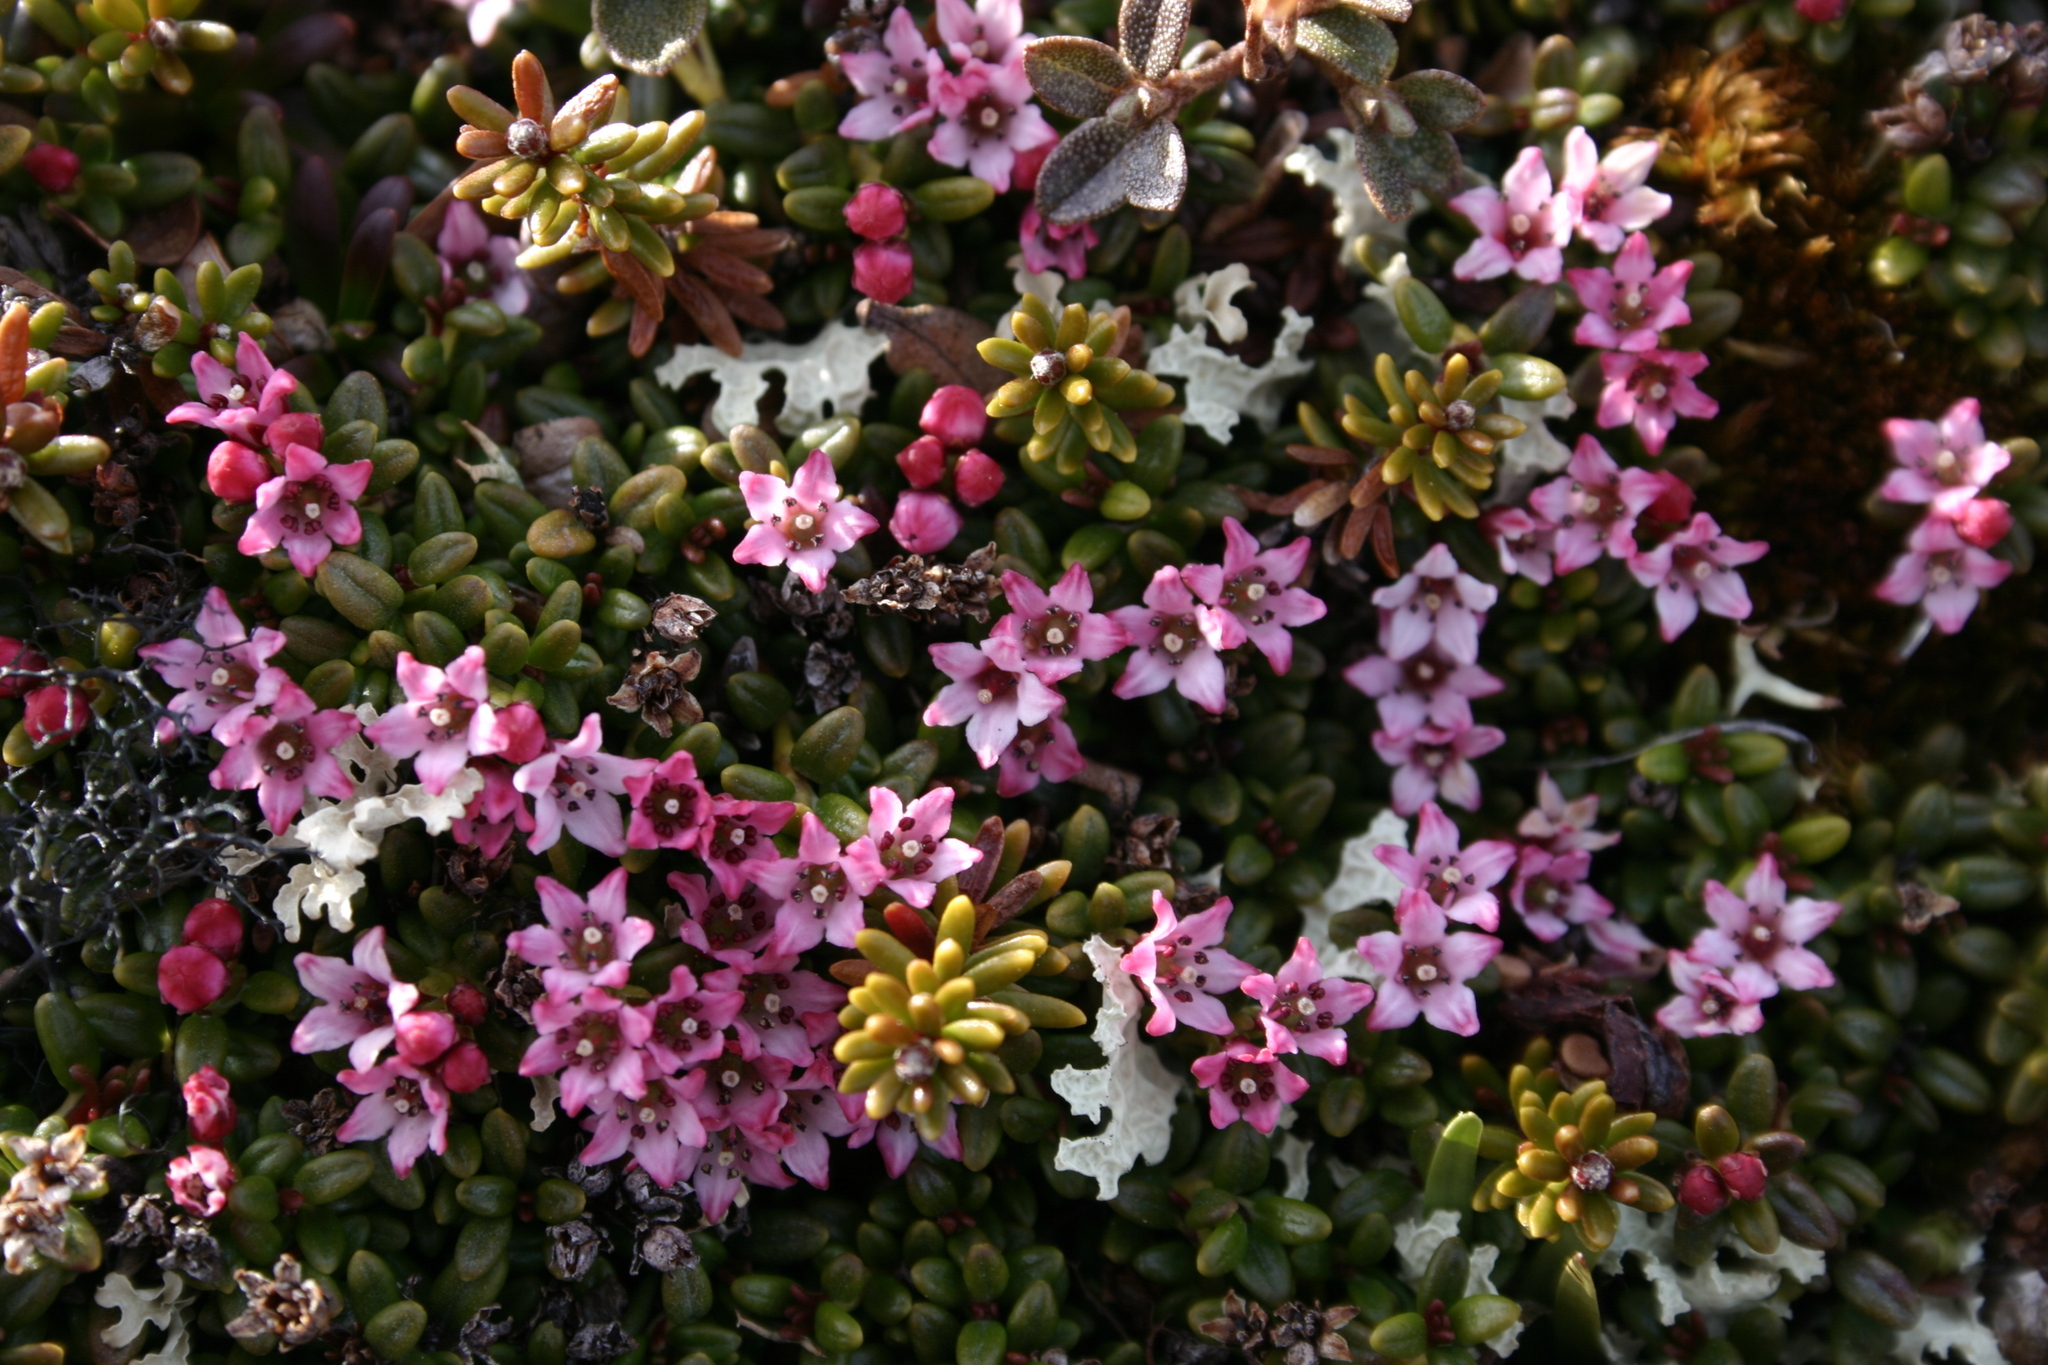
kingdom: Plantae
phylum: Tracheophyta
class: Magnoliopsida
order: Ericales
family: Ericaceae
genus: Kalmia
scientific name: Kalmia procumbens
